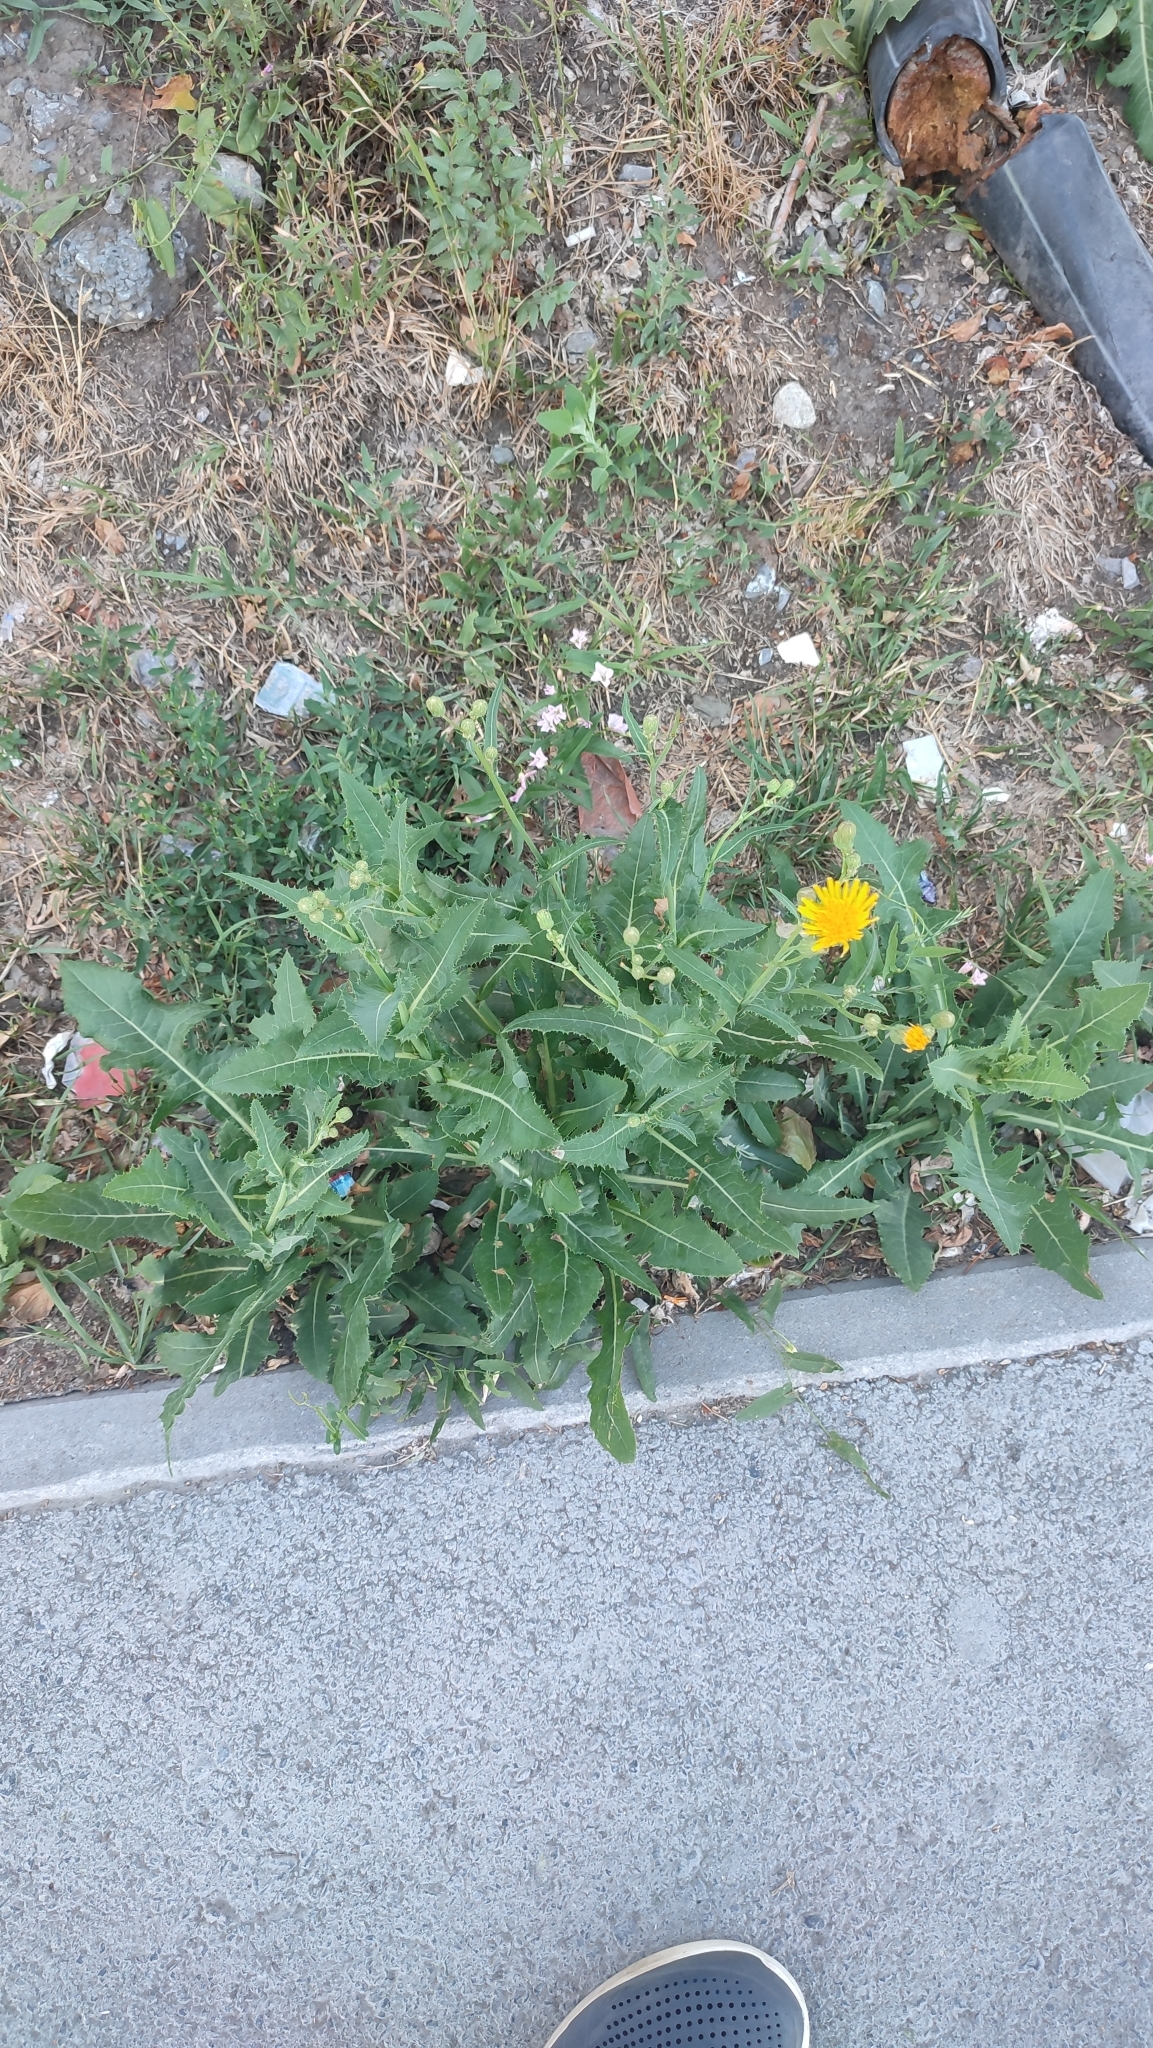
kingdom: Plantae
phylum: Tracheophyta
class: Magnoliopsida
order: Asterales
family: Asteraceae
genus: Sonchus
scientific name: Sonchus arvensis
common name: Perennial sow-thistle
